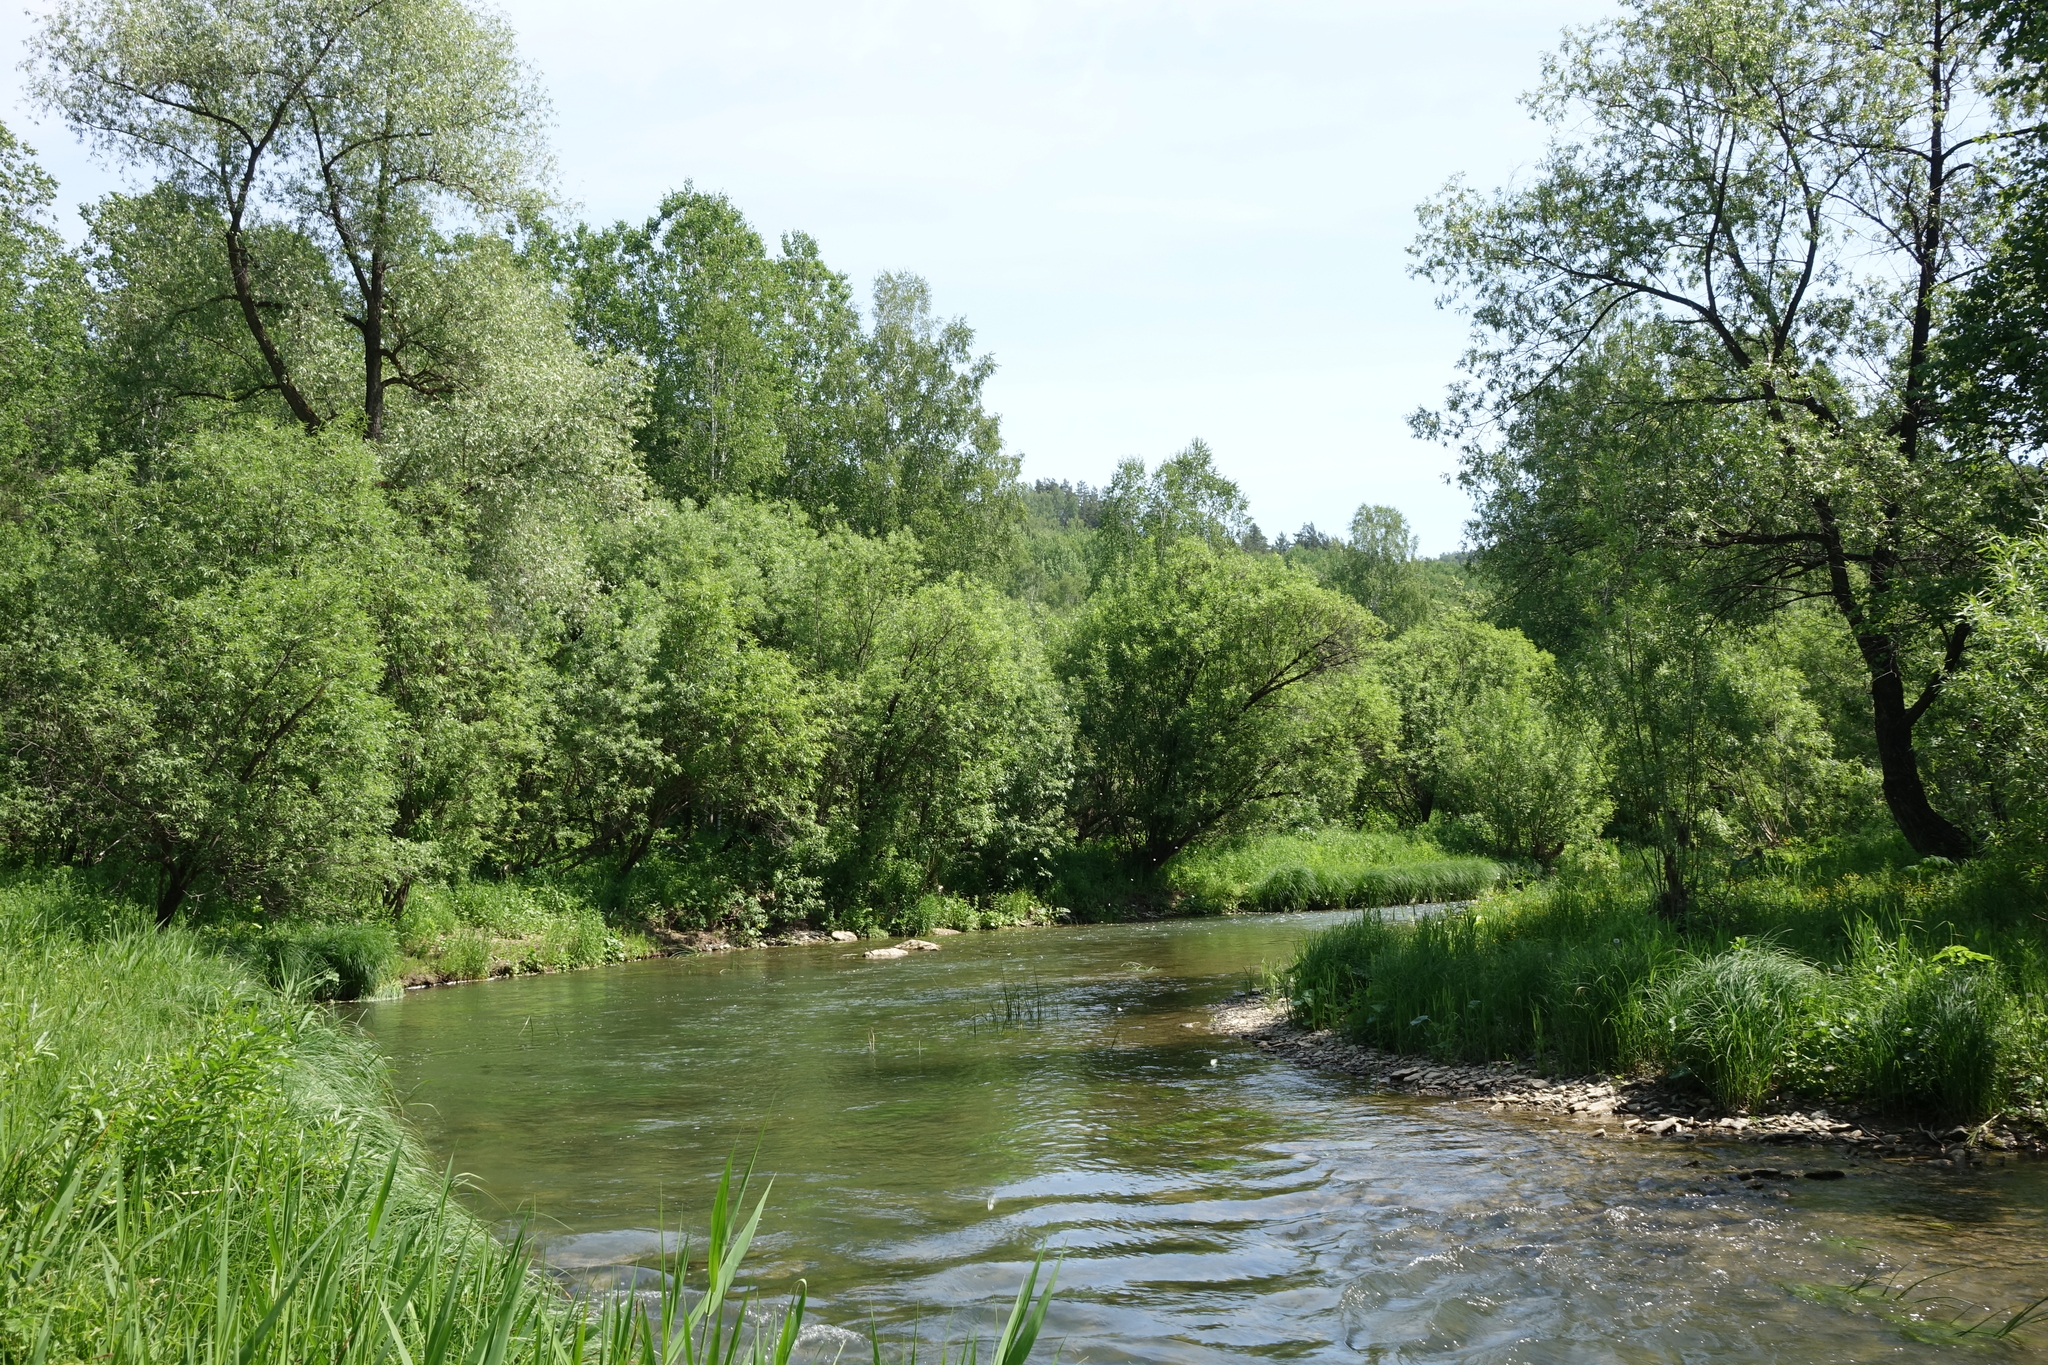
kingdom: Plantae
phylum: Tracheophyta
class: Magnoliopsida
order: Malpighiales
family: Salicaceae
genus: Salix
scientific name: Salix alba
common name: White willow
